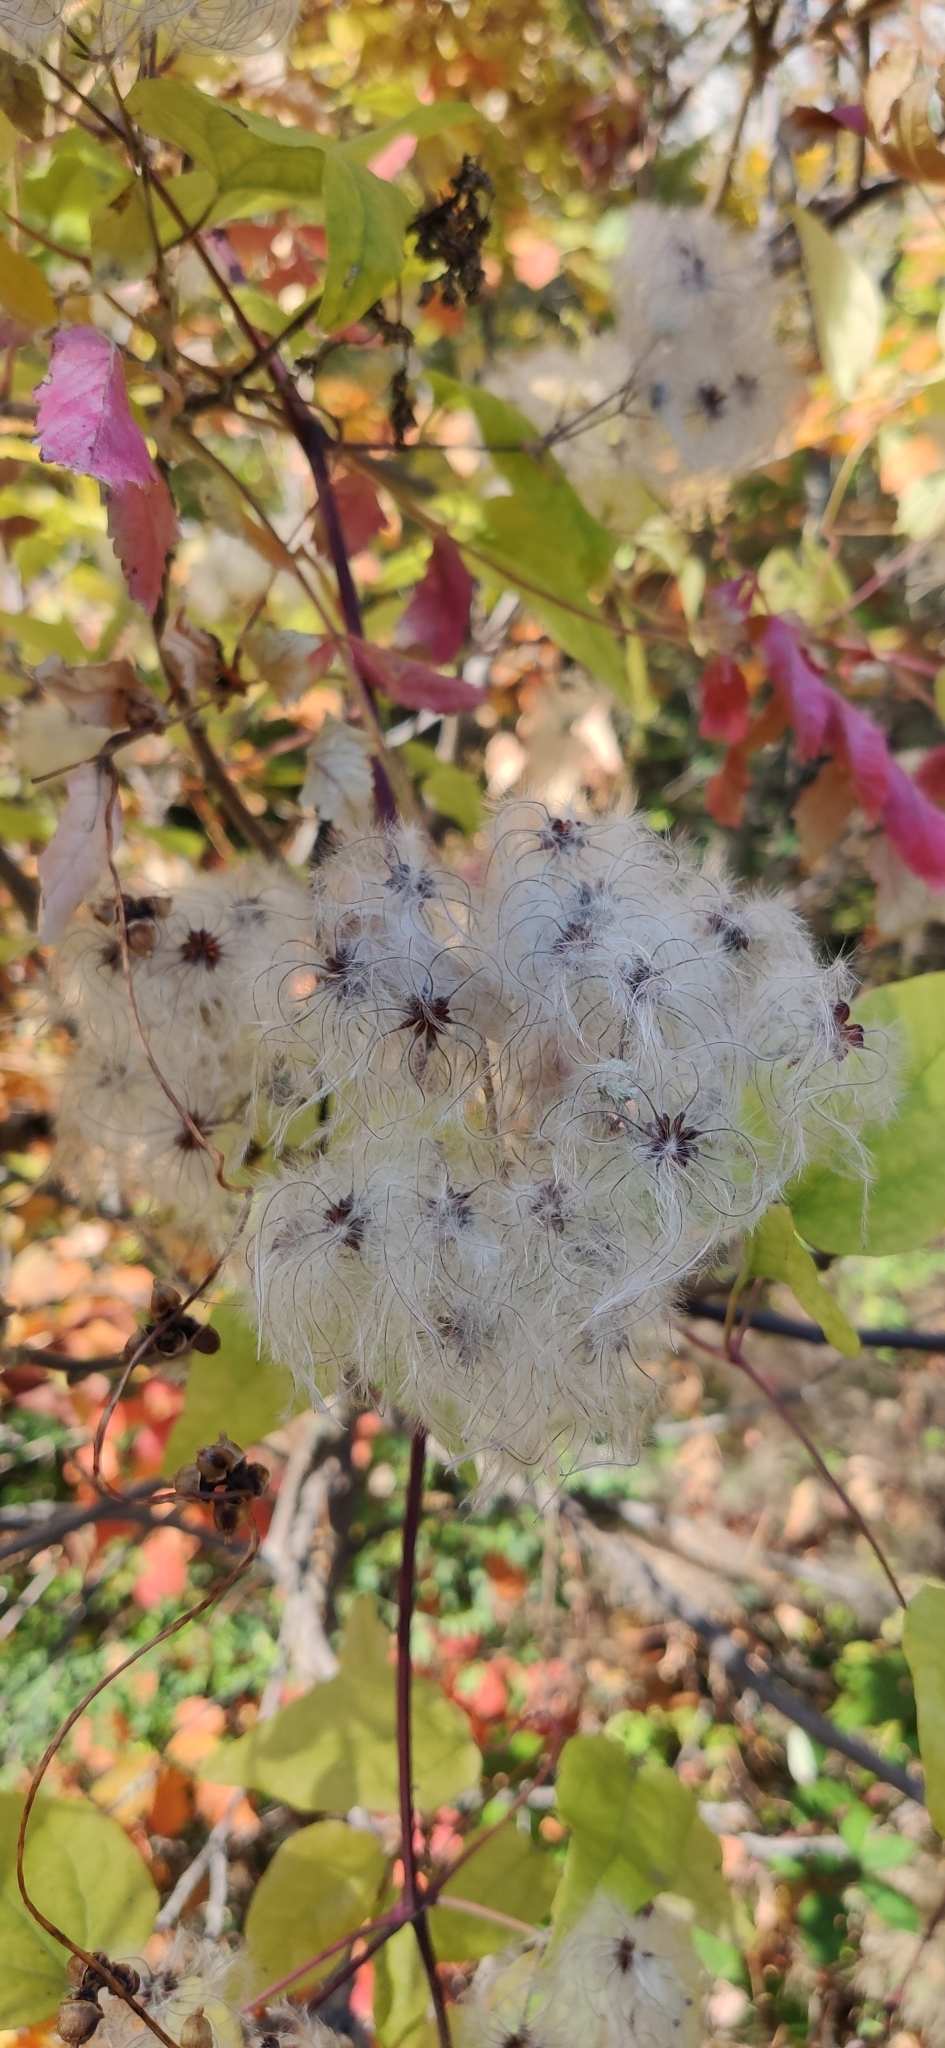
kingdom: Plantae
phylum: Tracheophyta
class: Magnoliopsida
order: Ranunculales
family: Ranunculaceae
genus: Clematis
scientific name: Clematis vitalba
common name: Evergreen clematis
